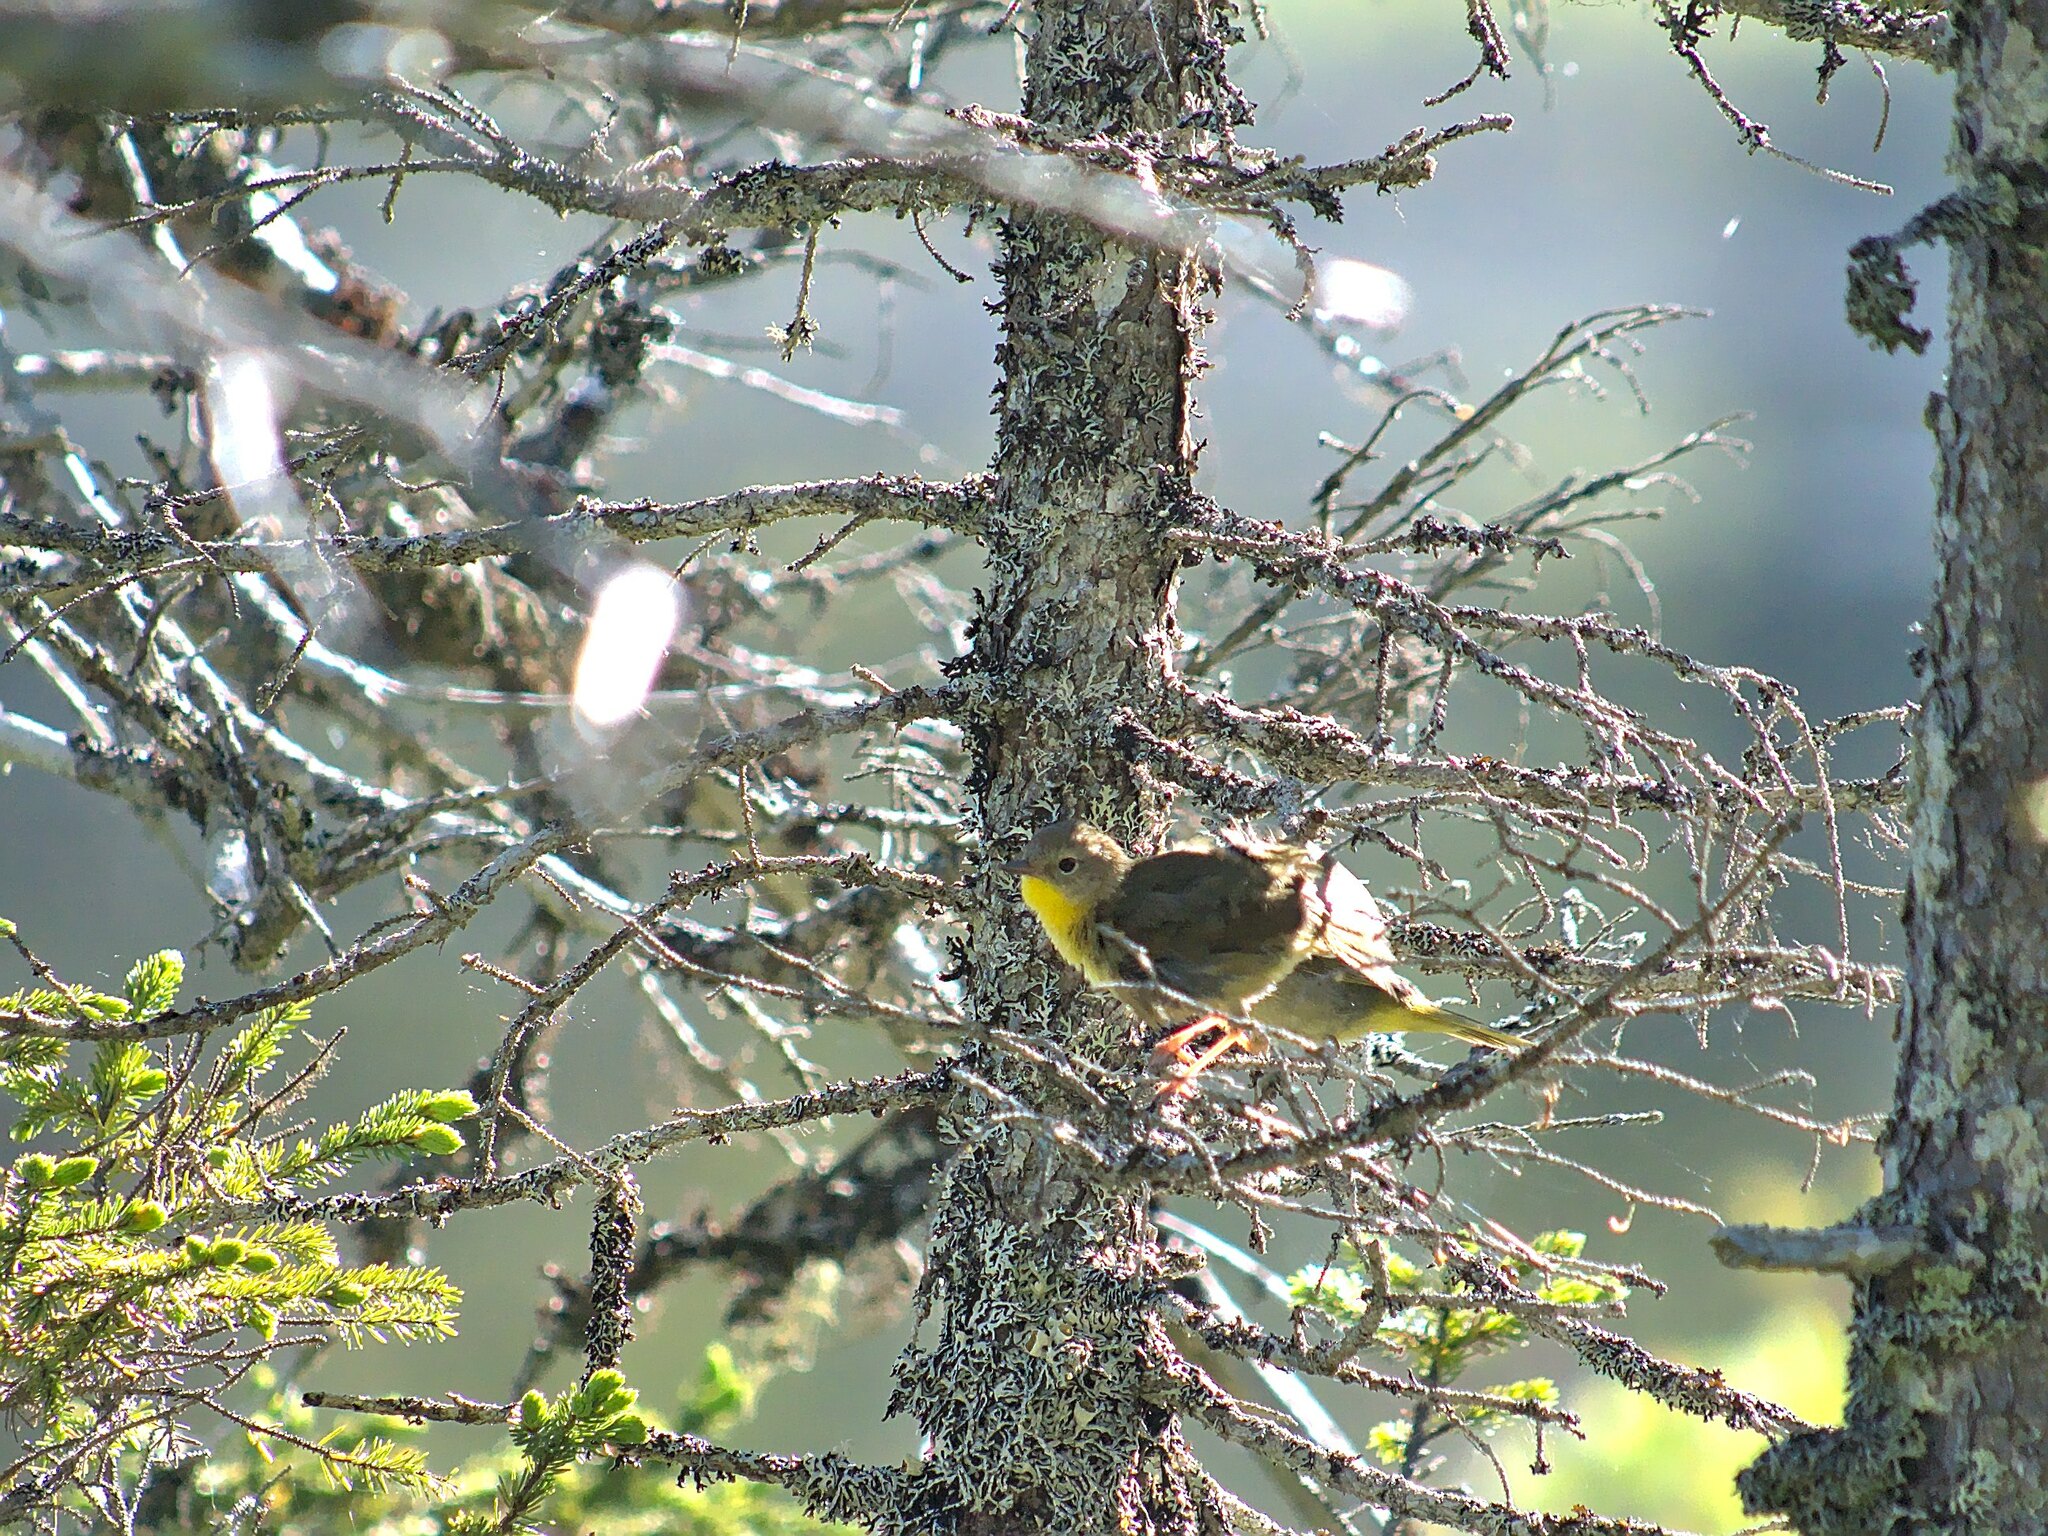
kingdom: Animalia
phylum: Chordata
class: Aves
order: Passeriformes
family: Parulidae
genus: Geothlypis
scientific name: Geothlypis trichas
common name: Common yellowthroat
